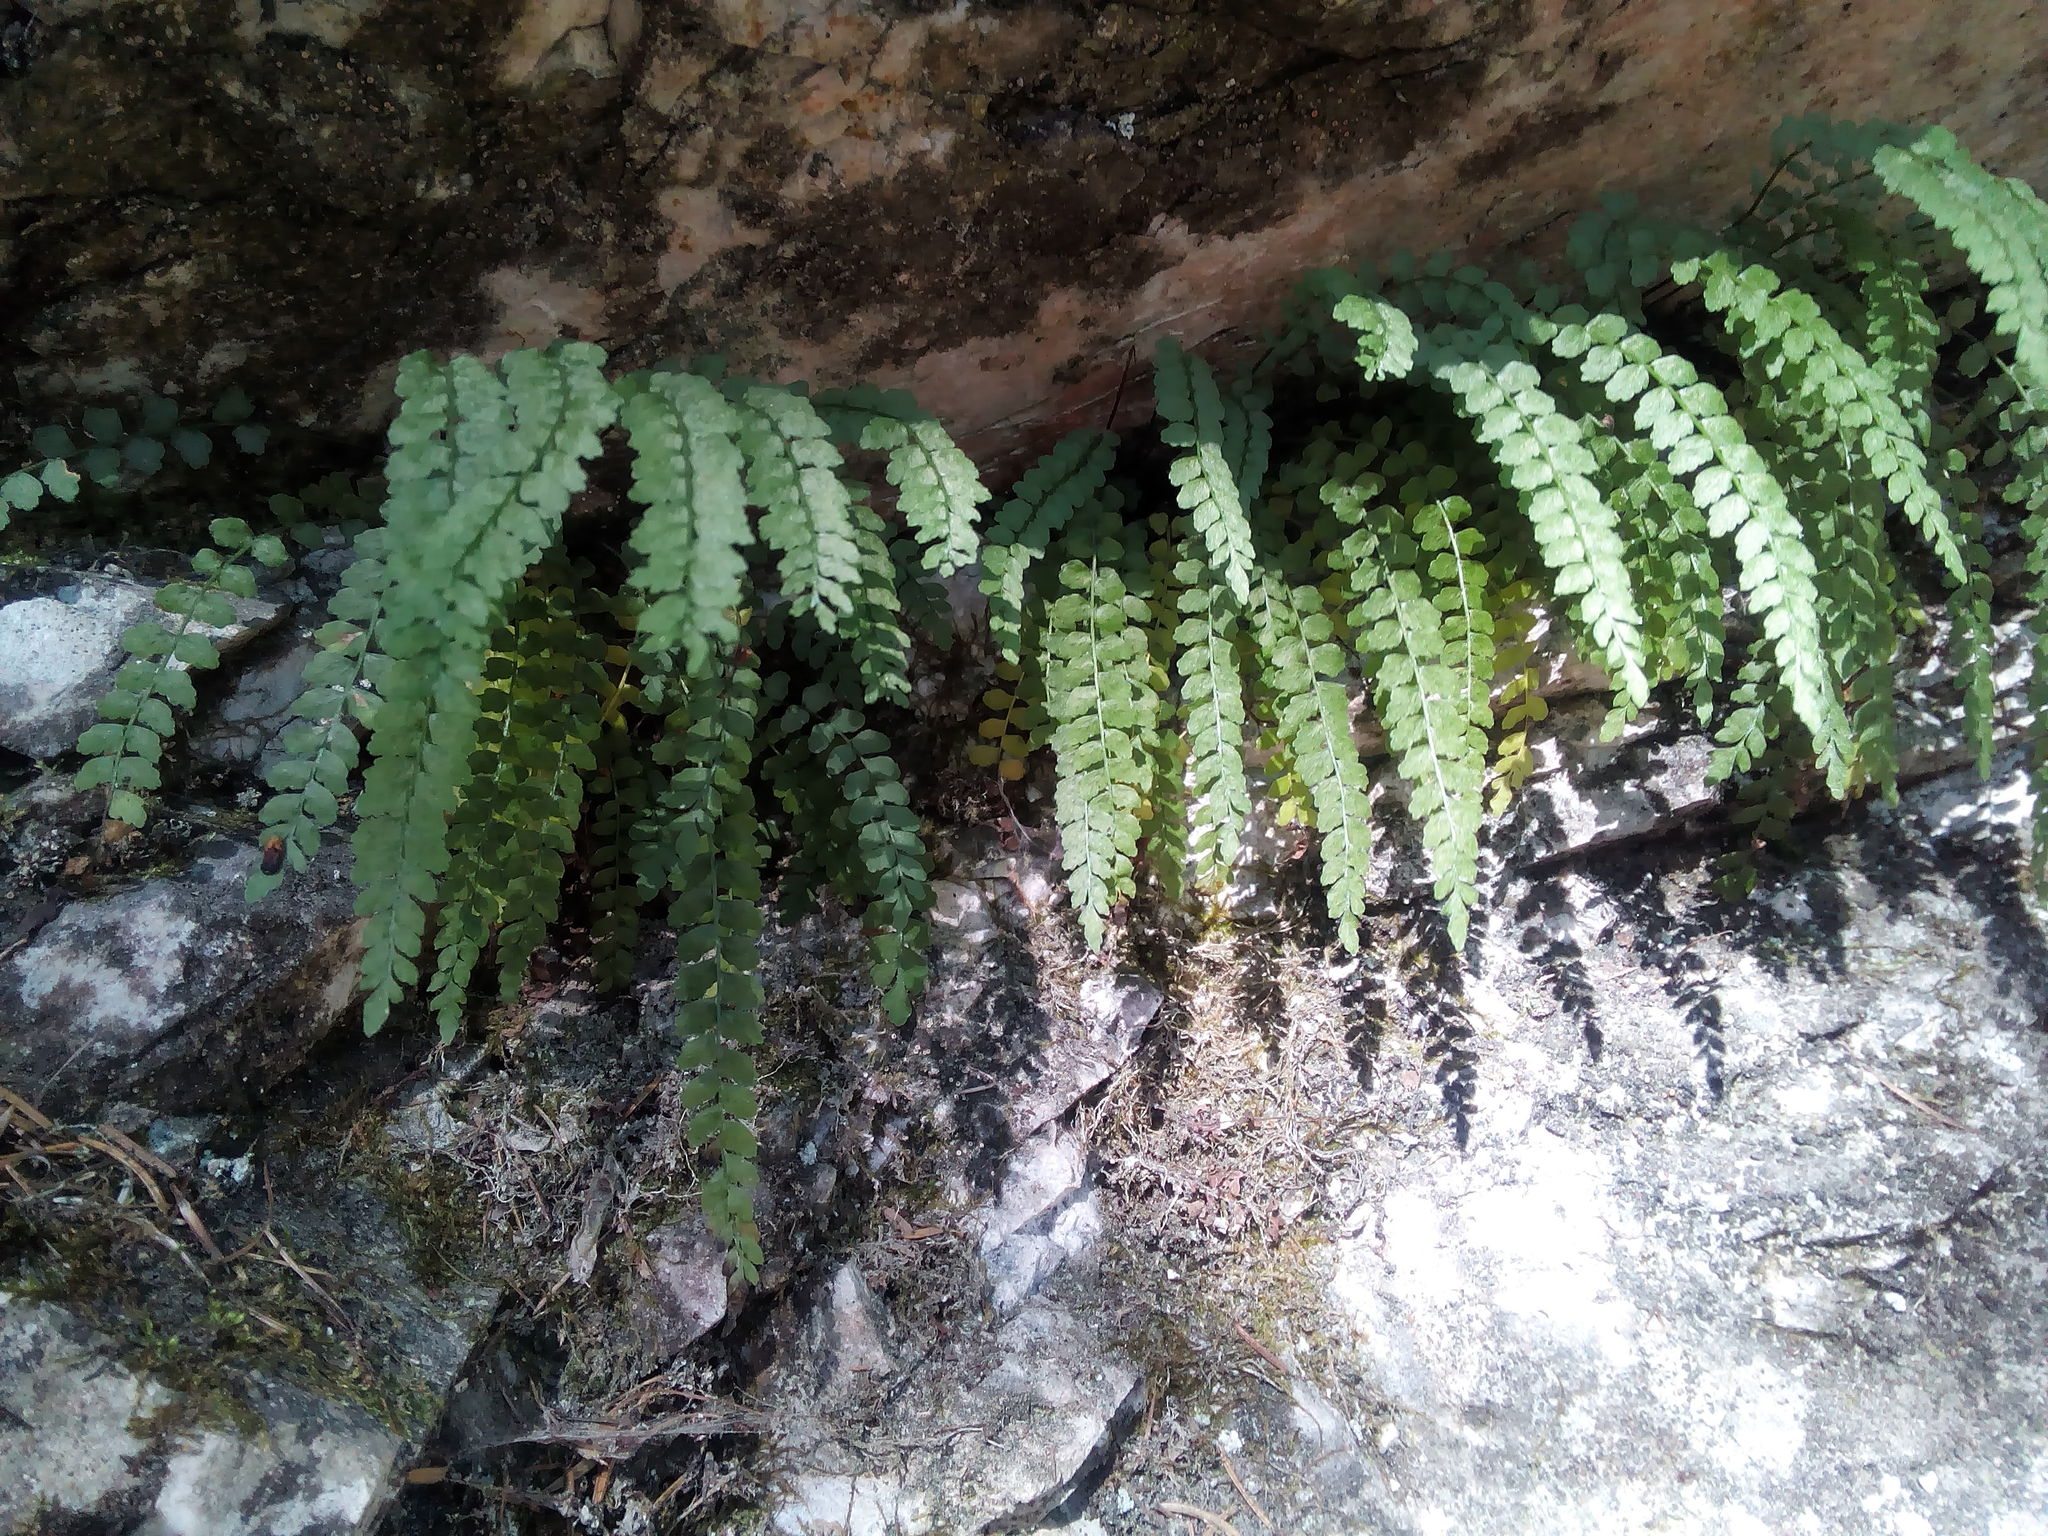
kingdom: Plantae
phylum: Tracheophyta
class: Polypodiopsida
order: Polypodiales
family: Aspleniaceae
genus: Asplenium
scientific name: Asplenium viride
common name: Green spleenwort
